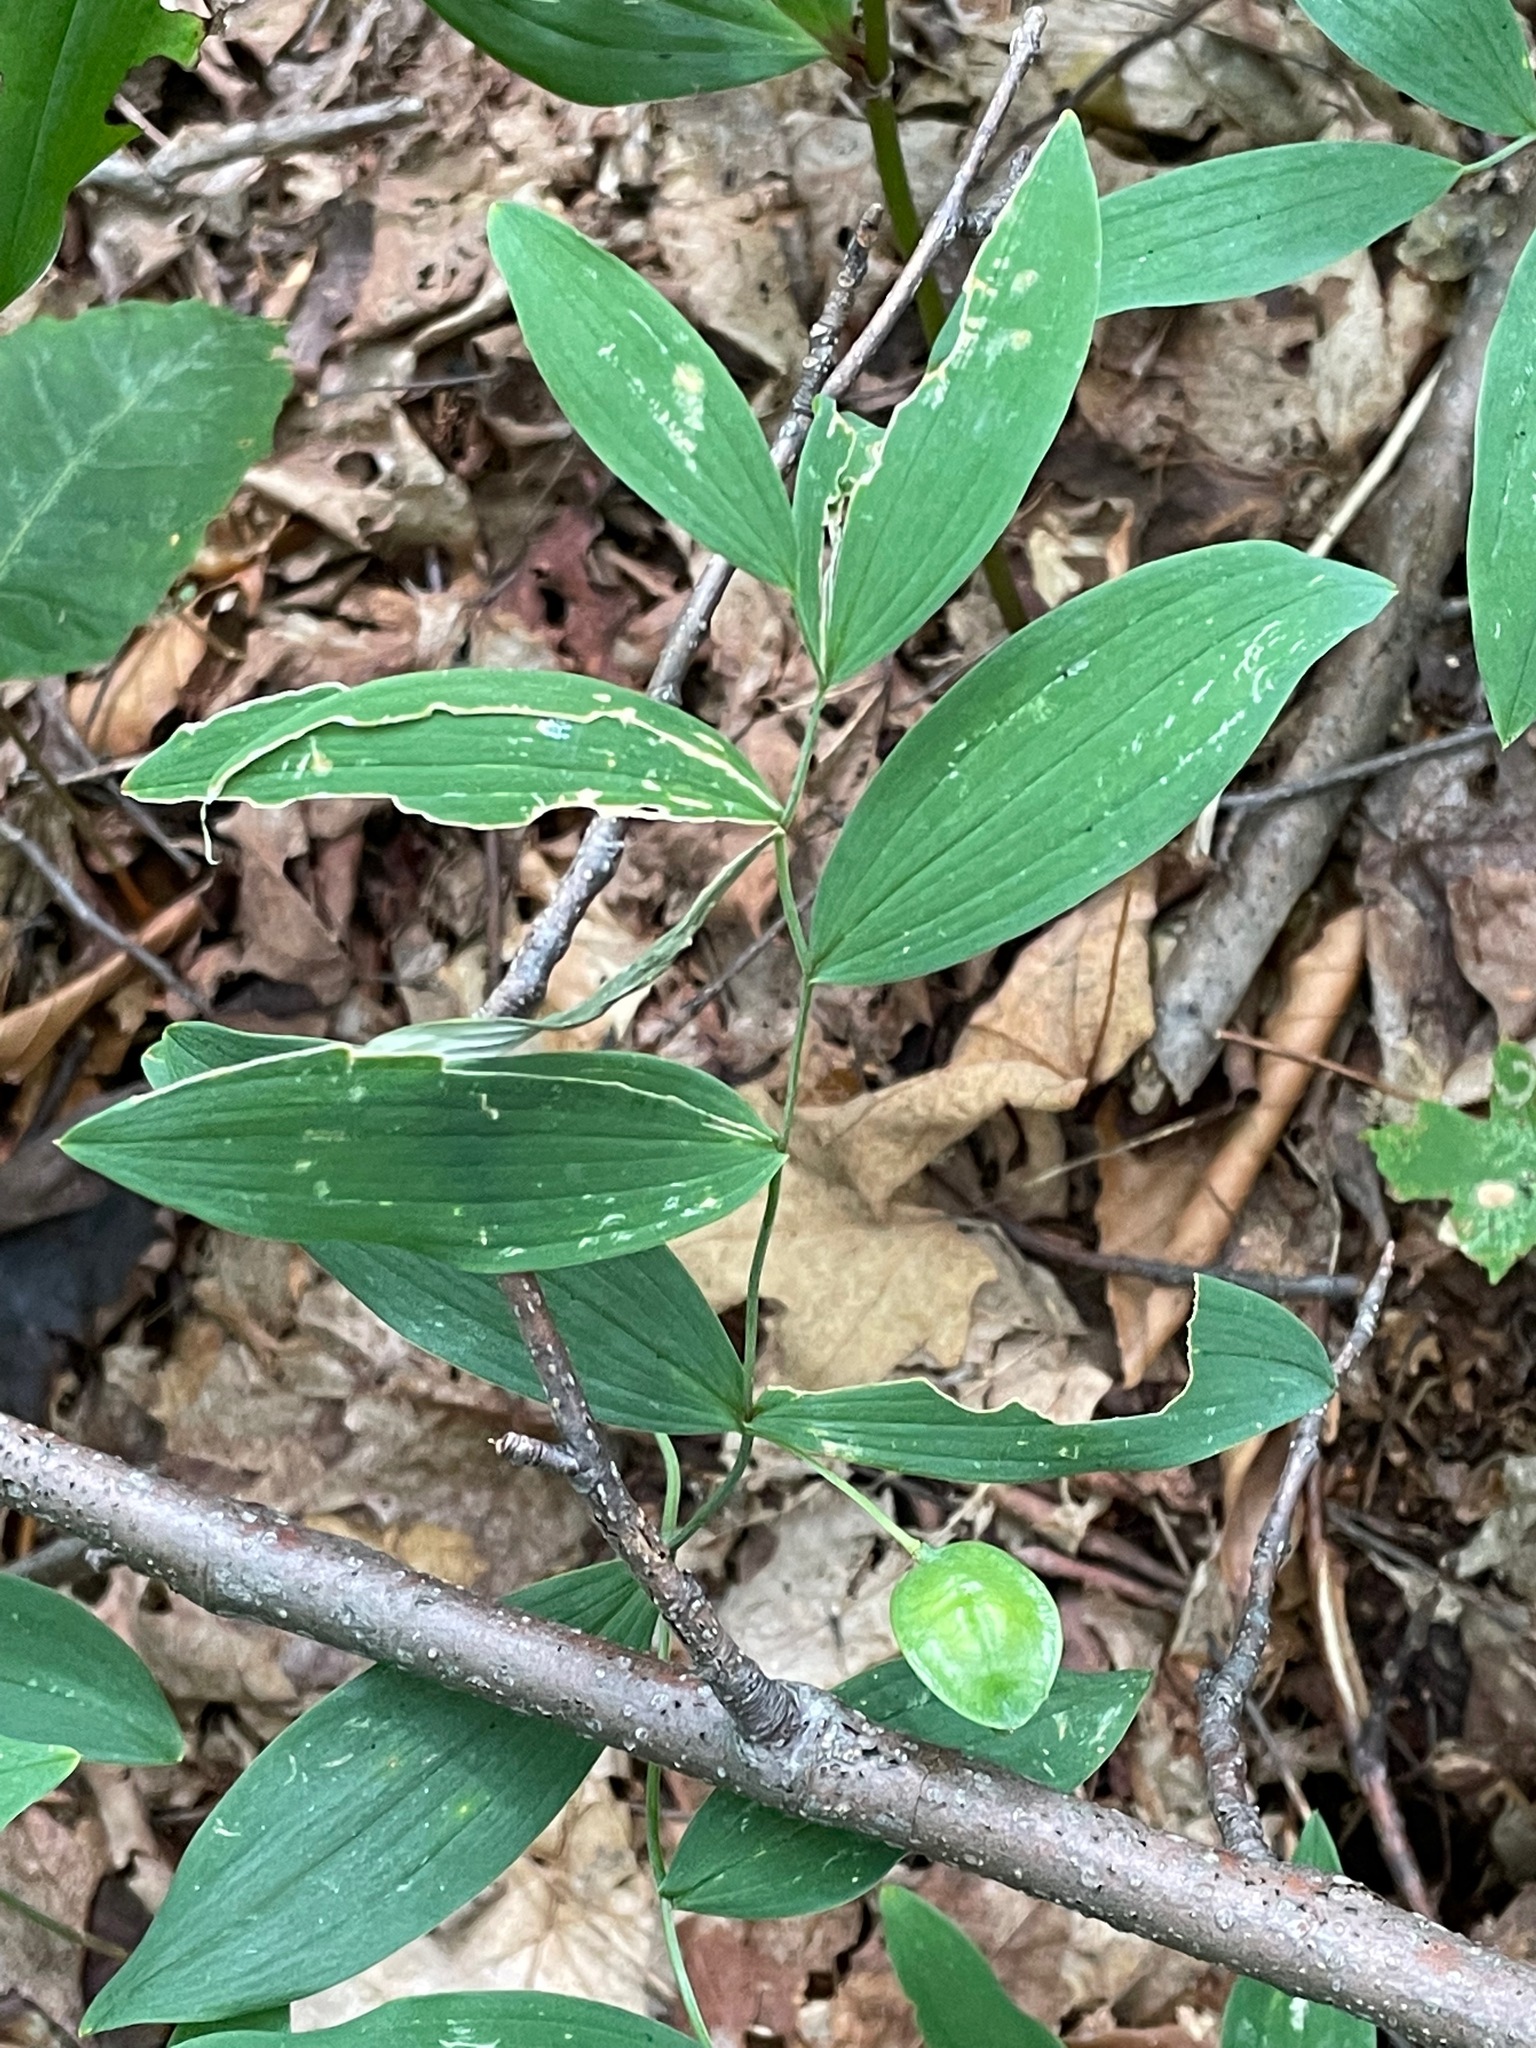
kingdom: Plantae
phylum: Tracheophyta
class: Liliopsida
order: Liliales
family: Colchicaceae
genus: Uvularia
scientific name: Uvularia sessilifolia
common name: Straw-lily
